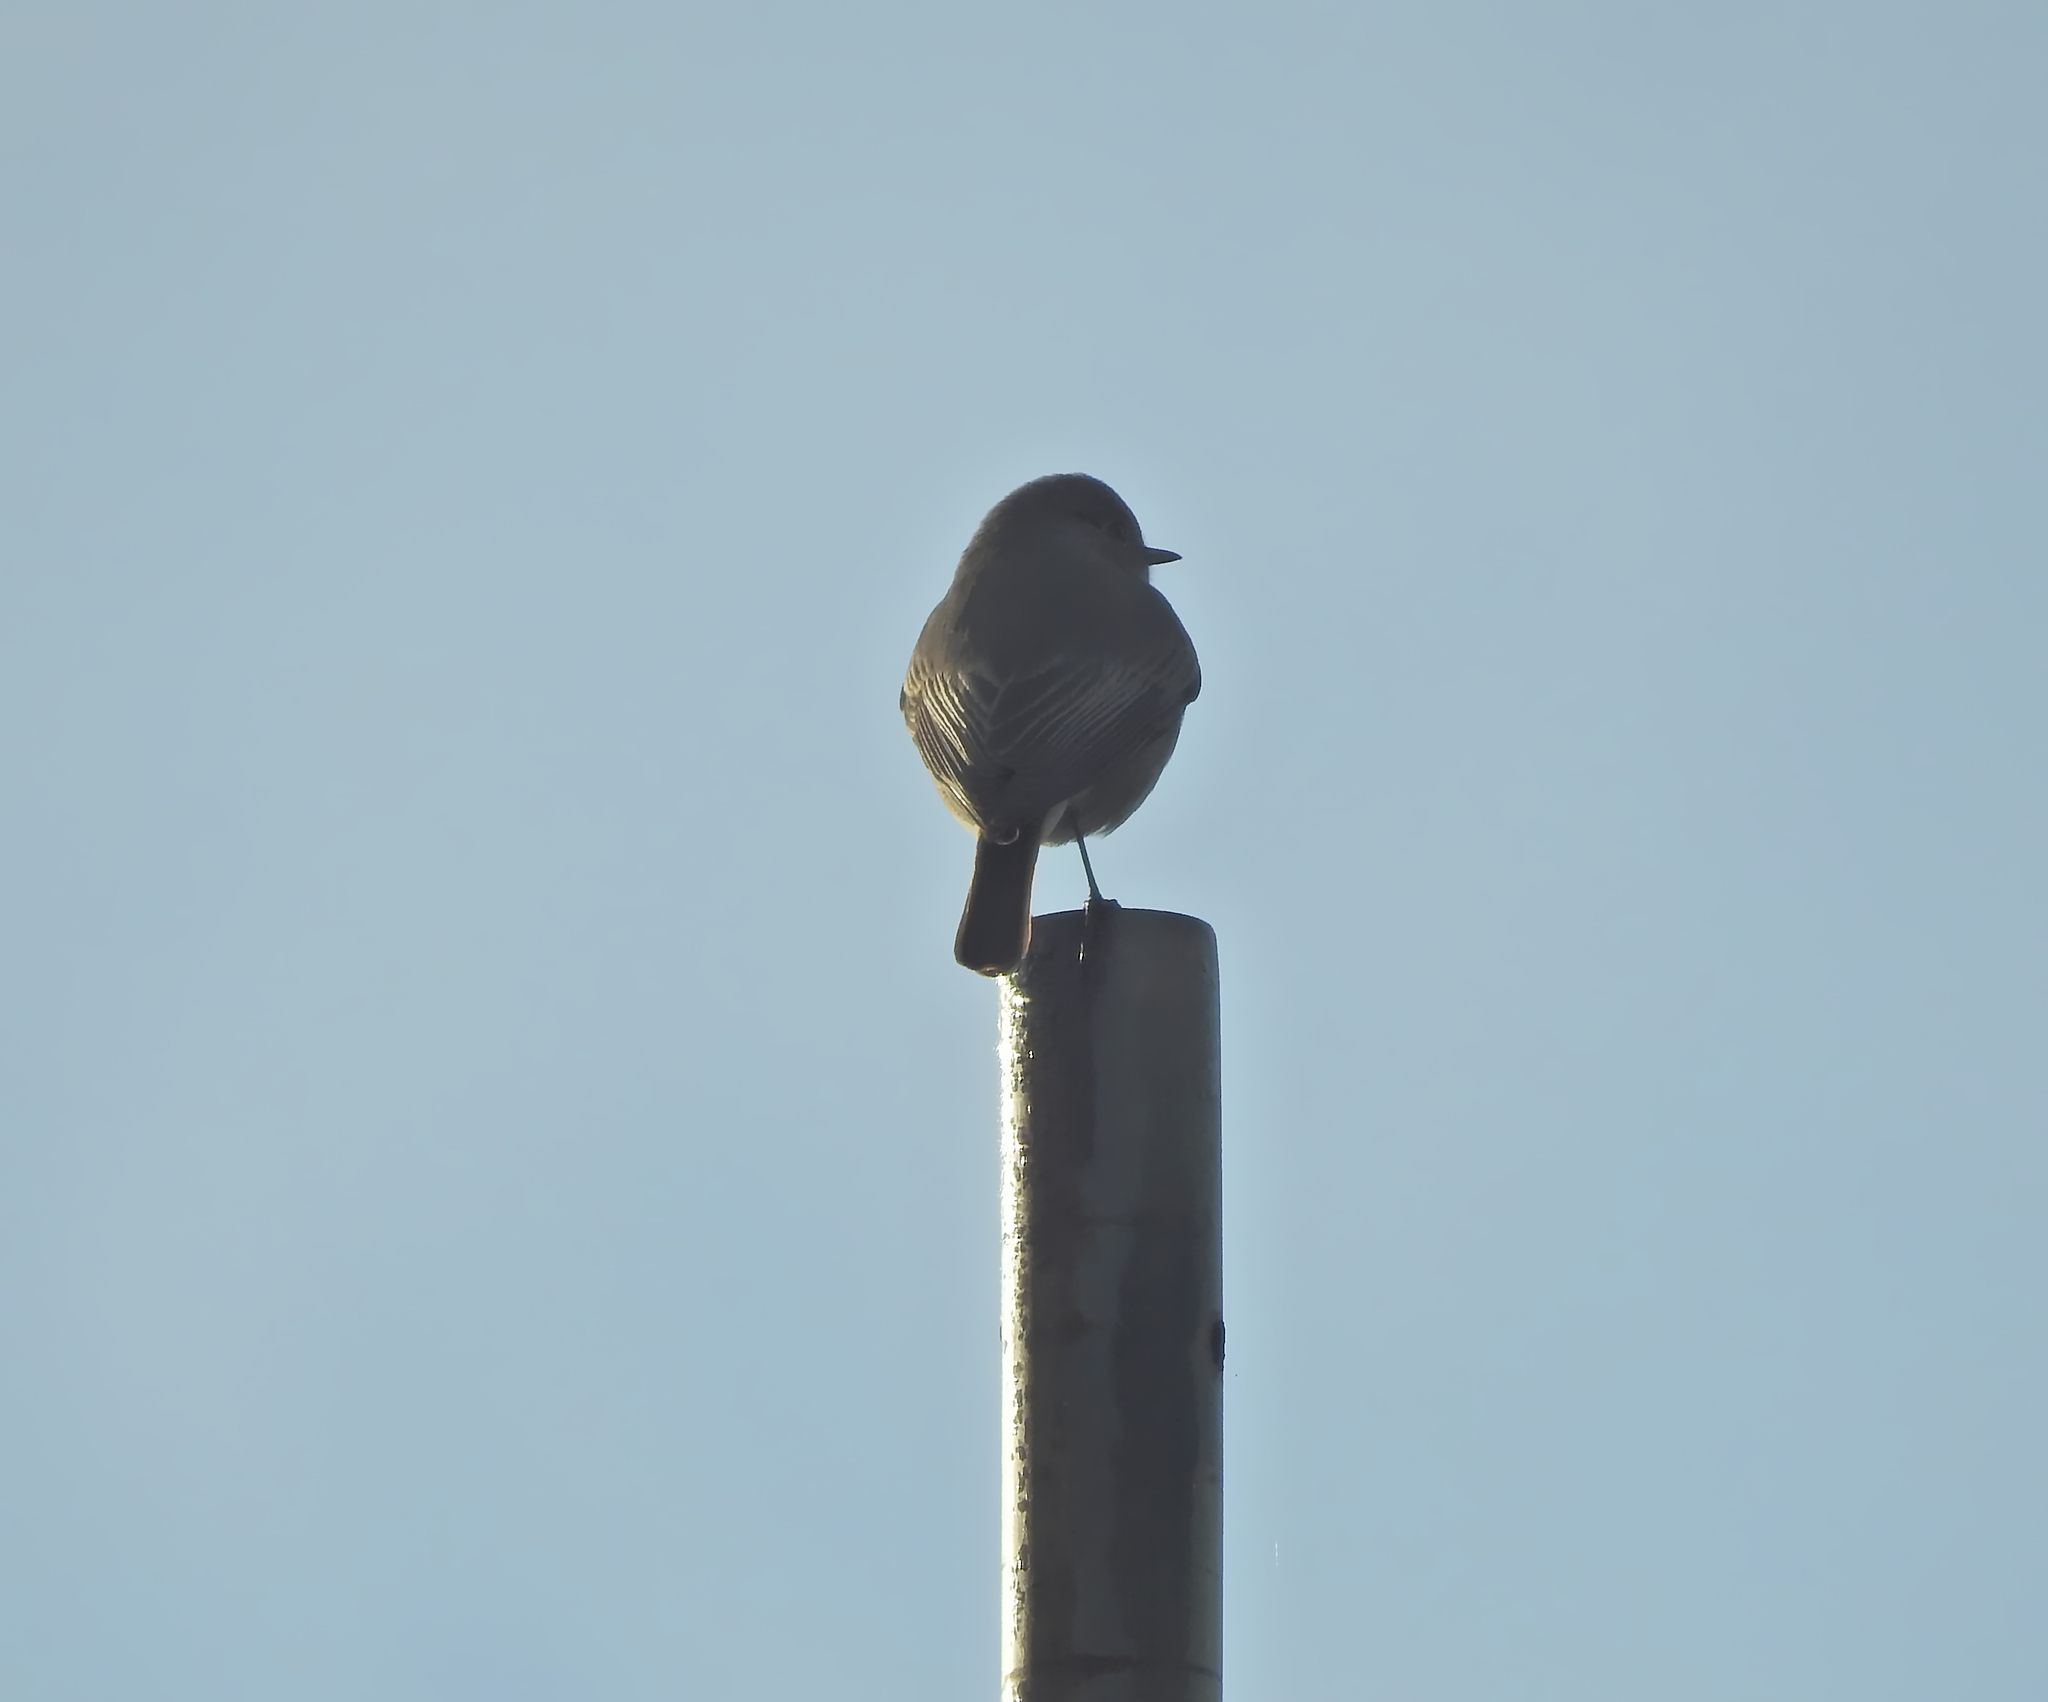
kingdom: Animalia
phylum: Chordata
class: Aves
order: Passeriformes
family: Muscicapidae
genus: Phoenicurus
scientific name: Phoenicurus ochruros
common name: Black redstart
